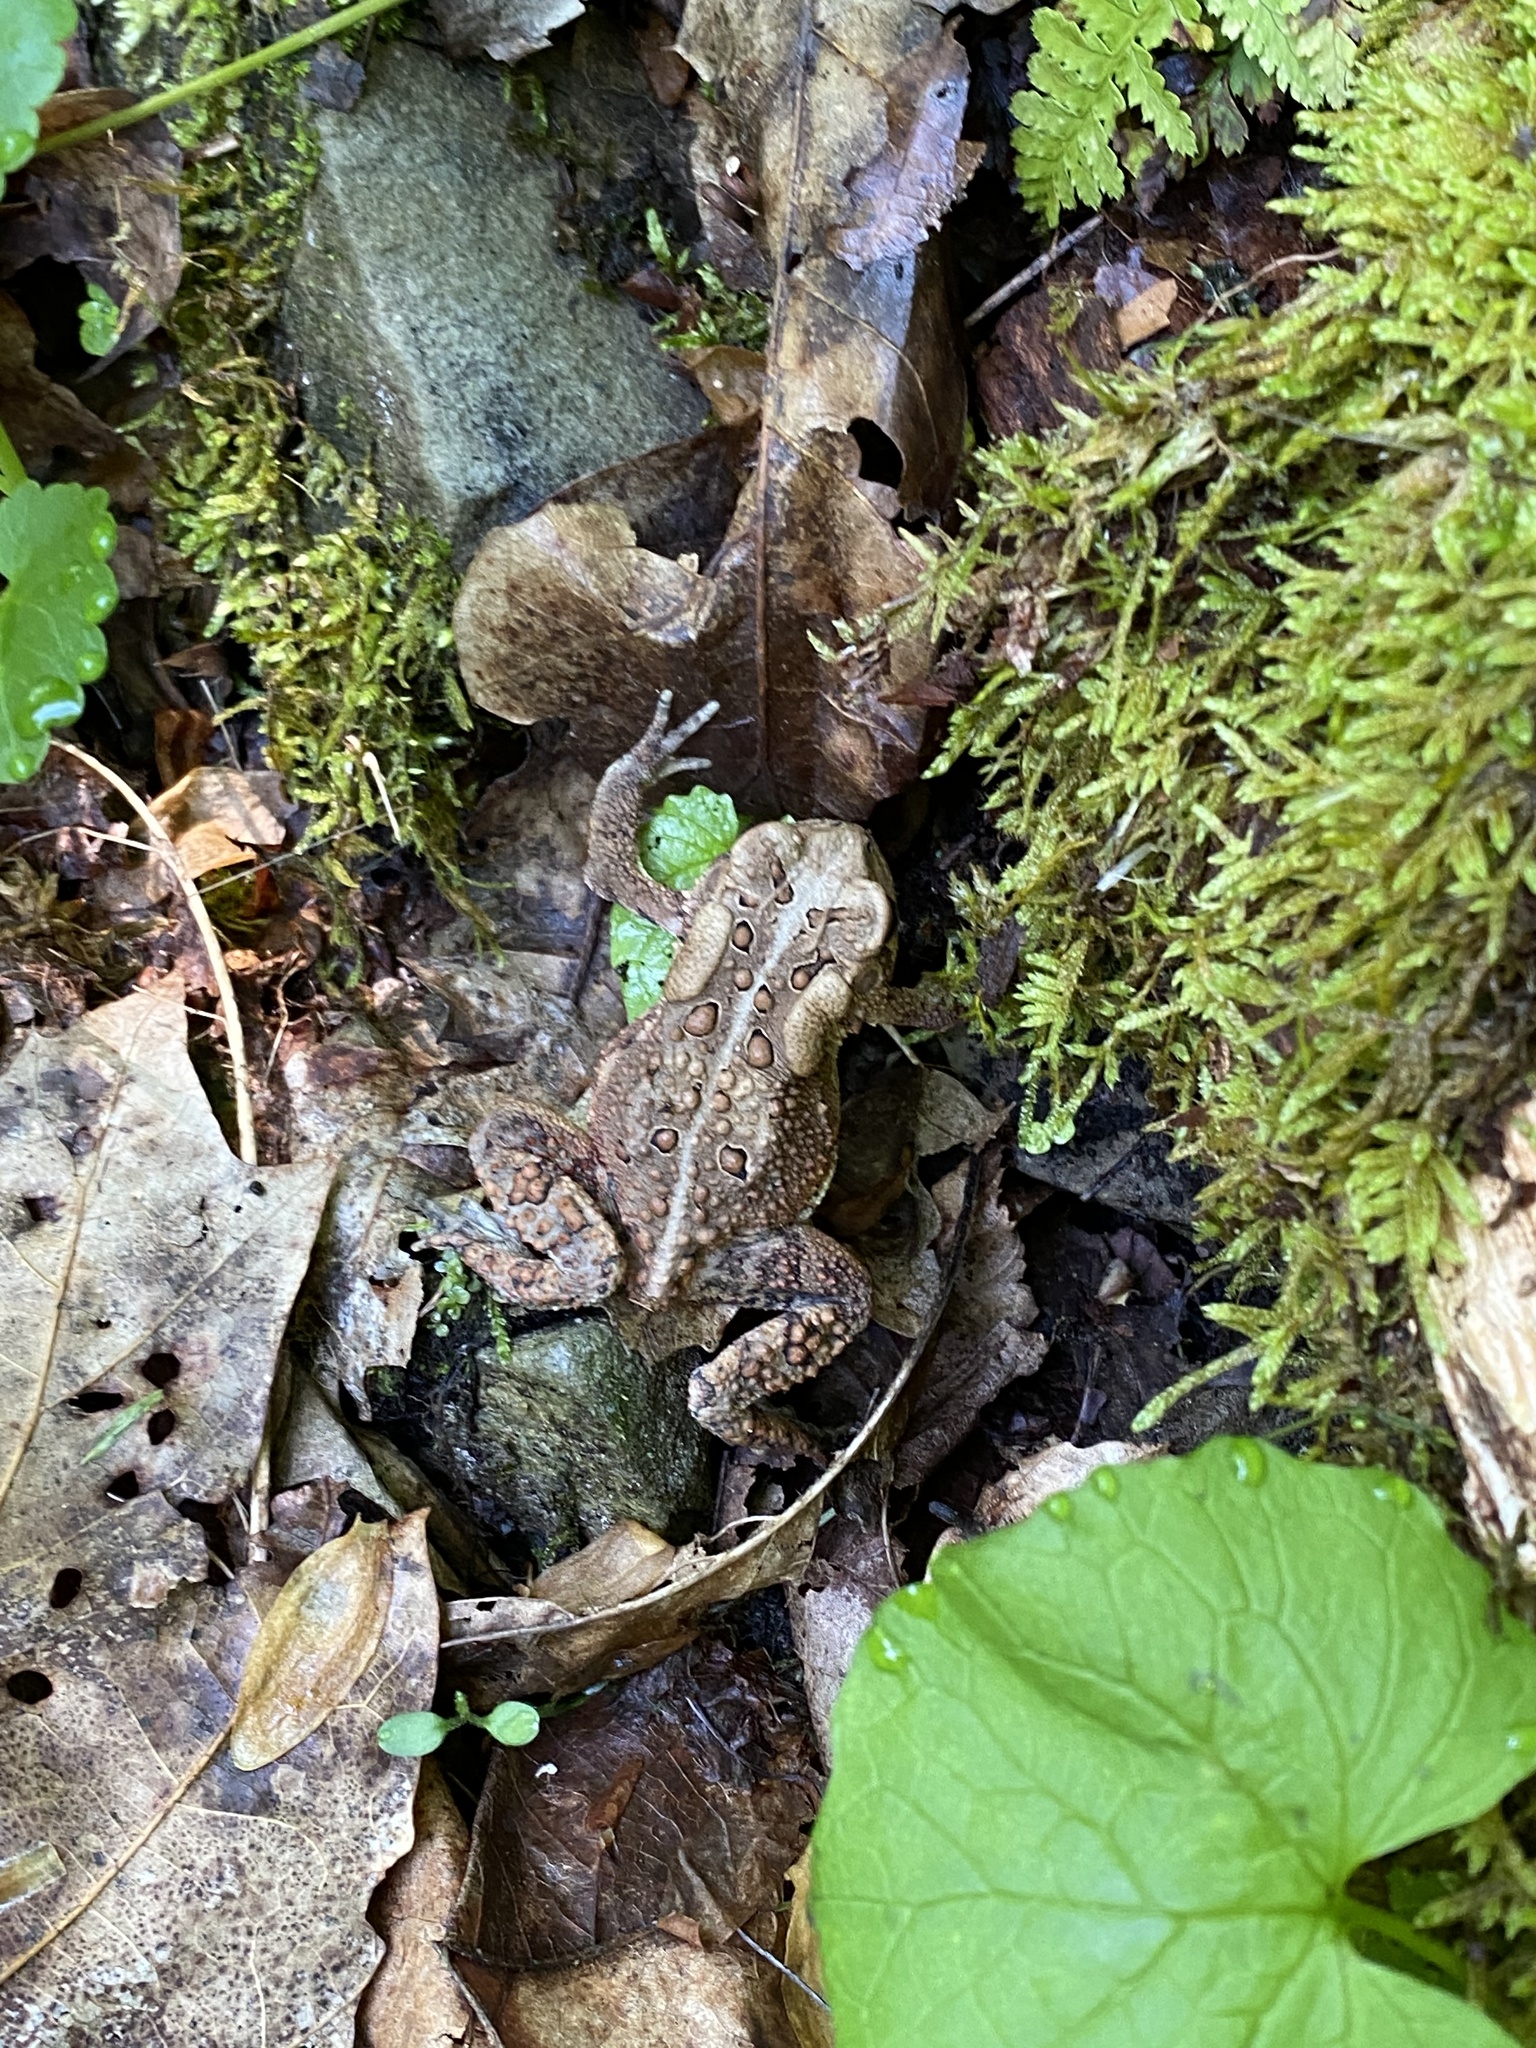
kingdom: Animalia
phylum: Chordata
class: Amphibia
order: Anura
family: Bufonidae
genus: Anaxyrus
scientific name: Anaxyrus americanus
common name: American toad
